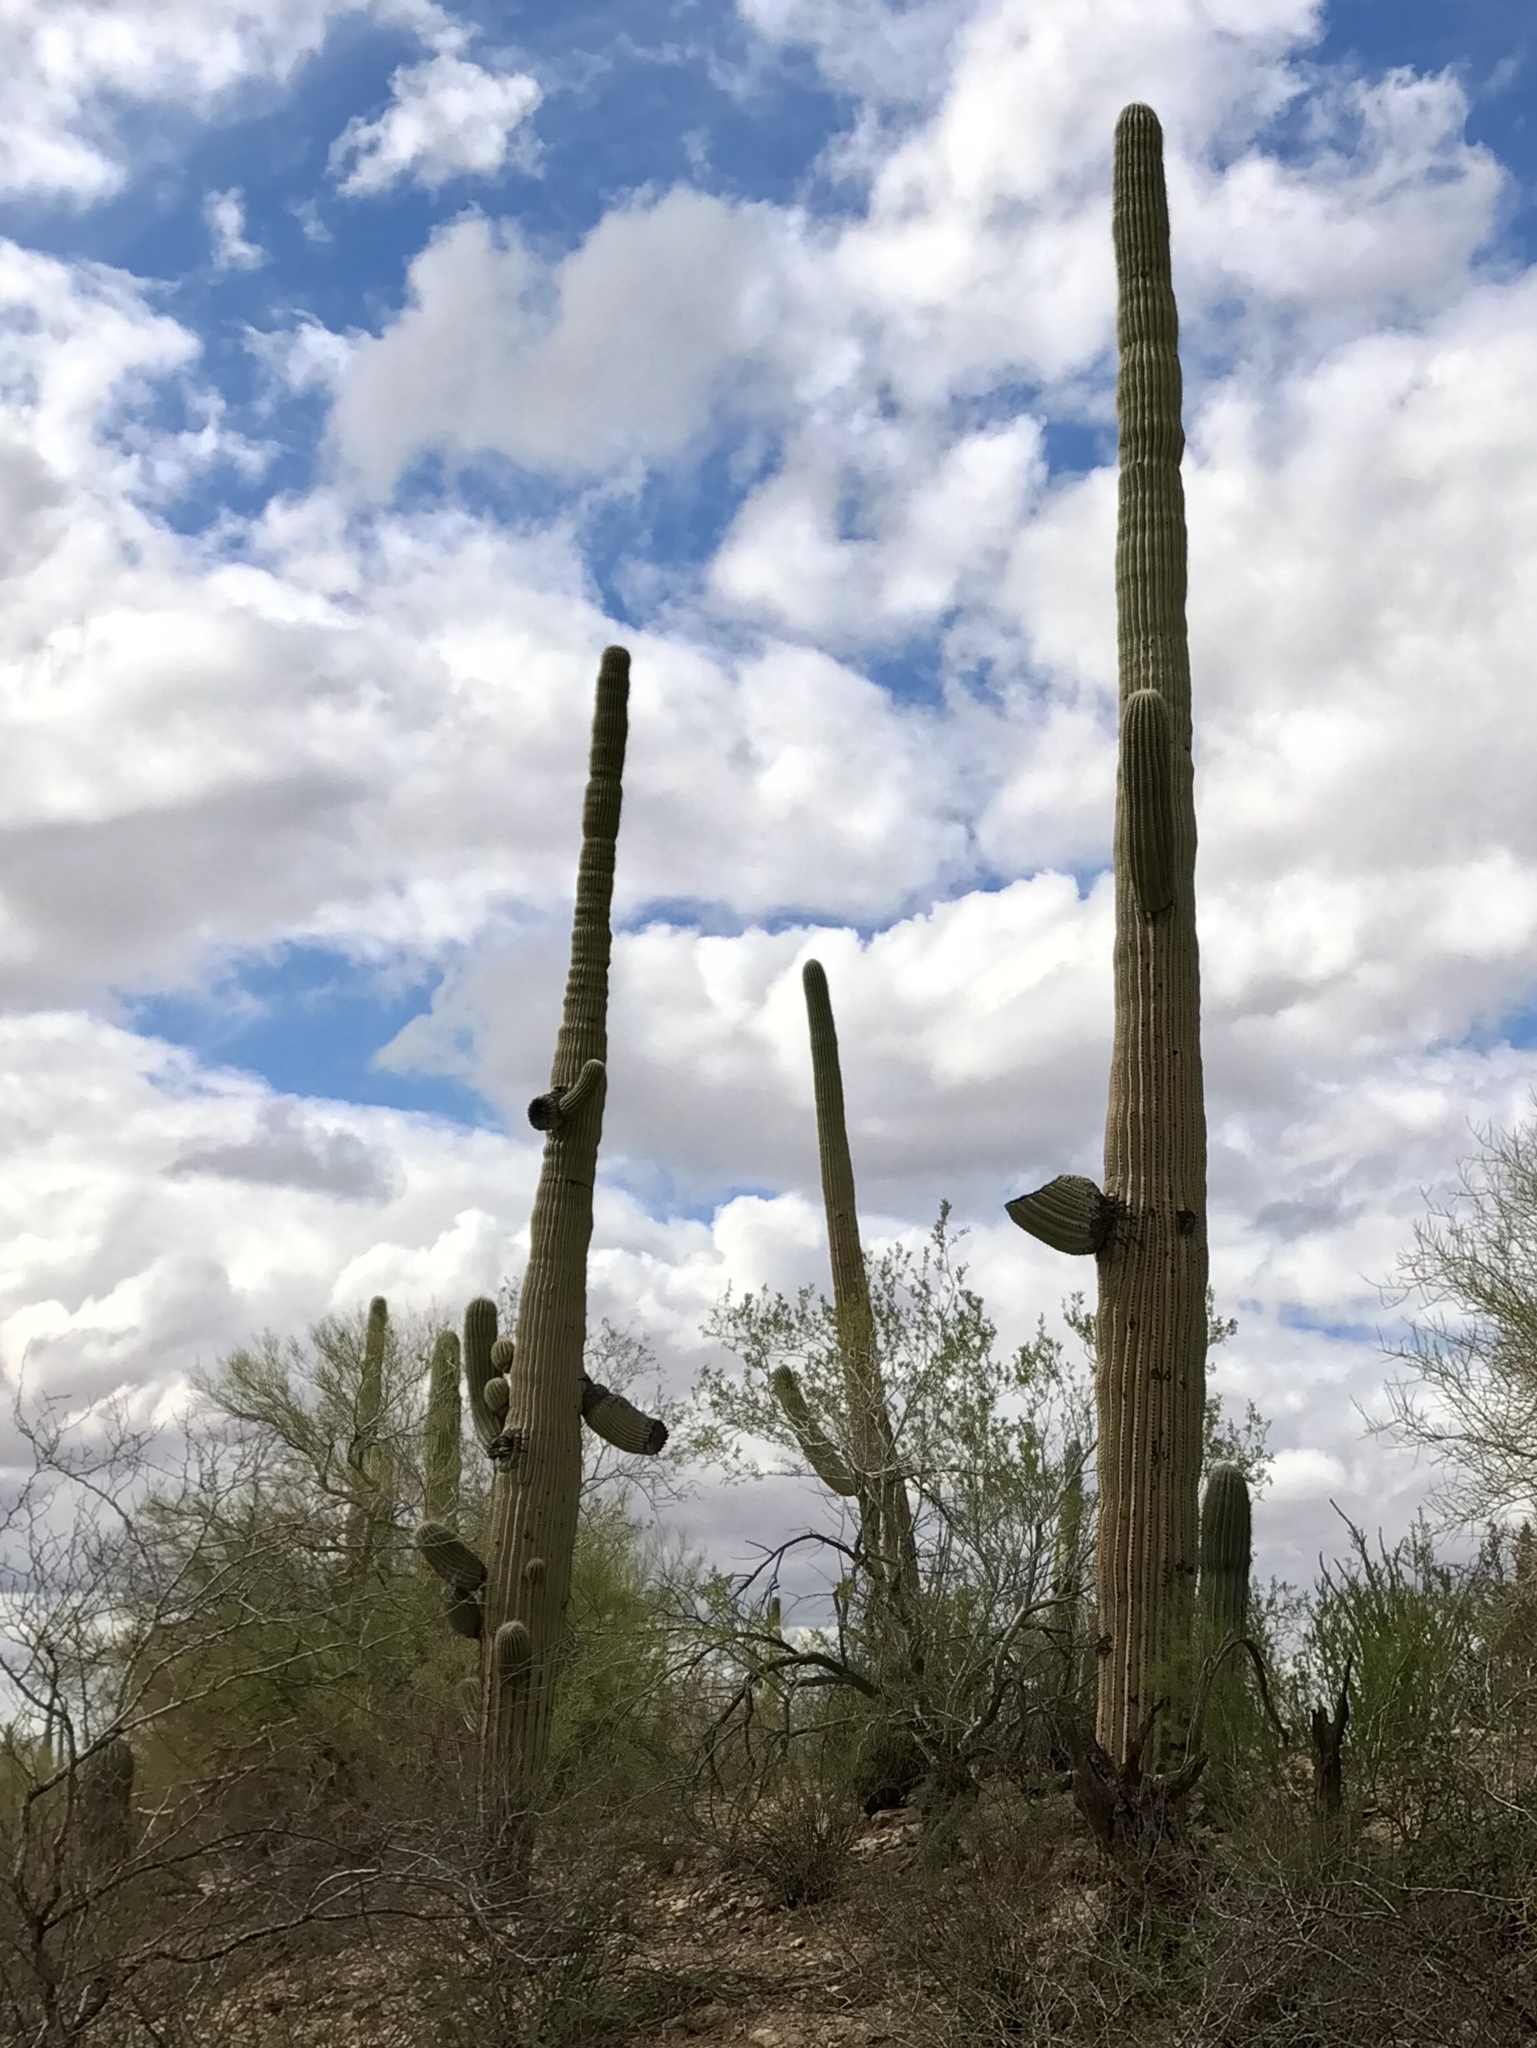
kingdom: Plantae
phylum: Tracheophyta
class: Magnoliopsida
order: Caryophyllales
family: Cactaceae
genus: Carnegiea
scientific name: Carnegiea gigantea
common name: Saguaro
